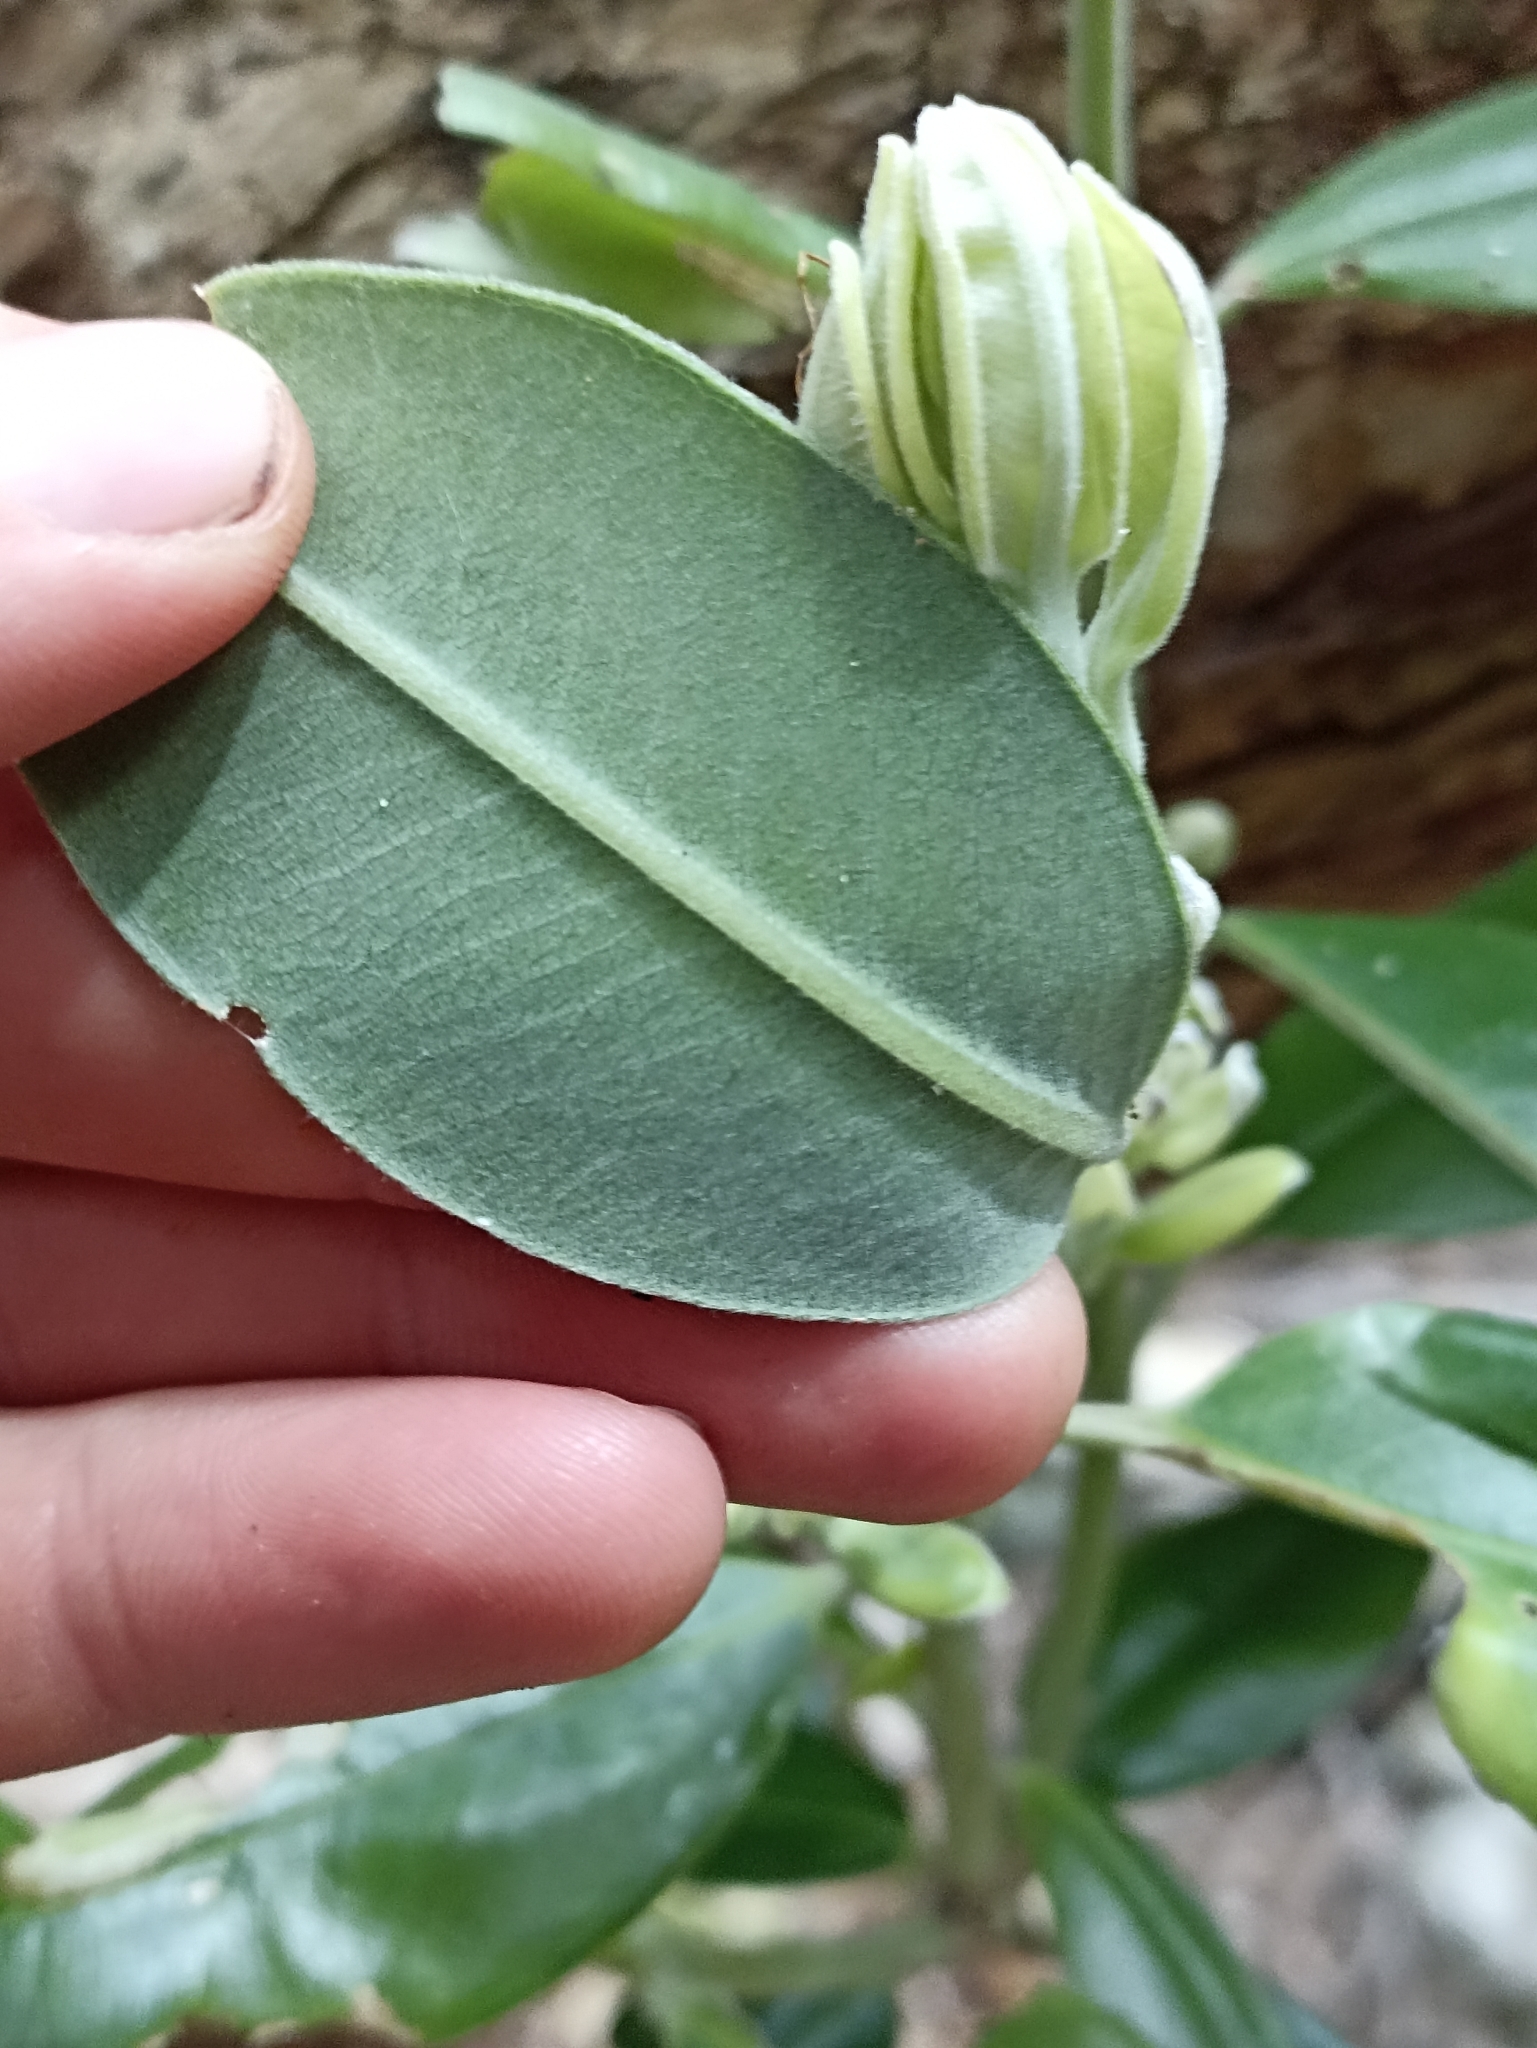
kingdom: Plantae
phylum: Tracheophyta
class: Magnoliopsida
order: Myrtales
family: Myrtaceae
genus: Metrosideros
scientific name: Metrosideros excelsa
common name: New zealand christmastree
